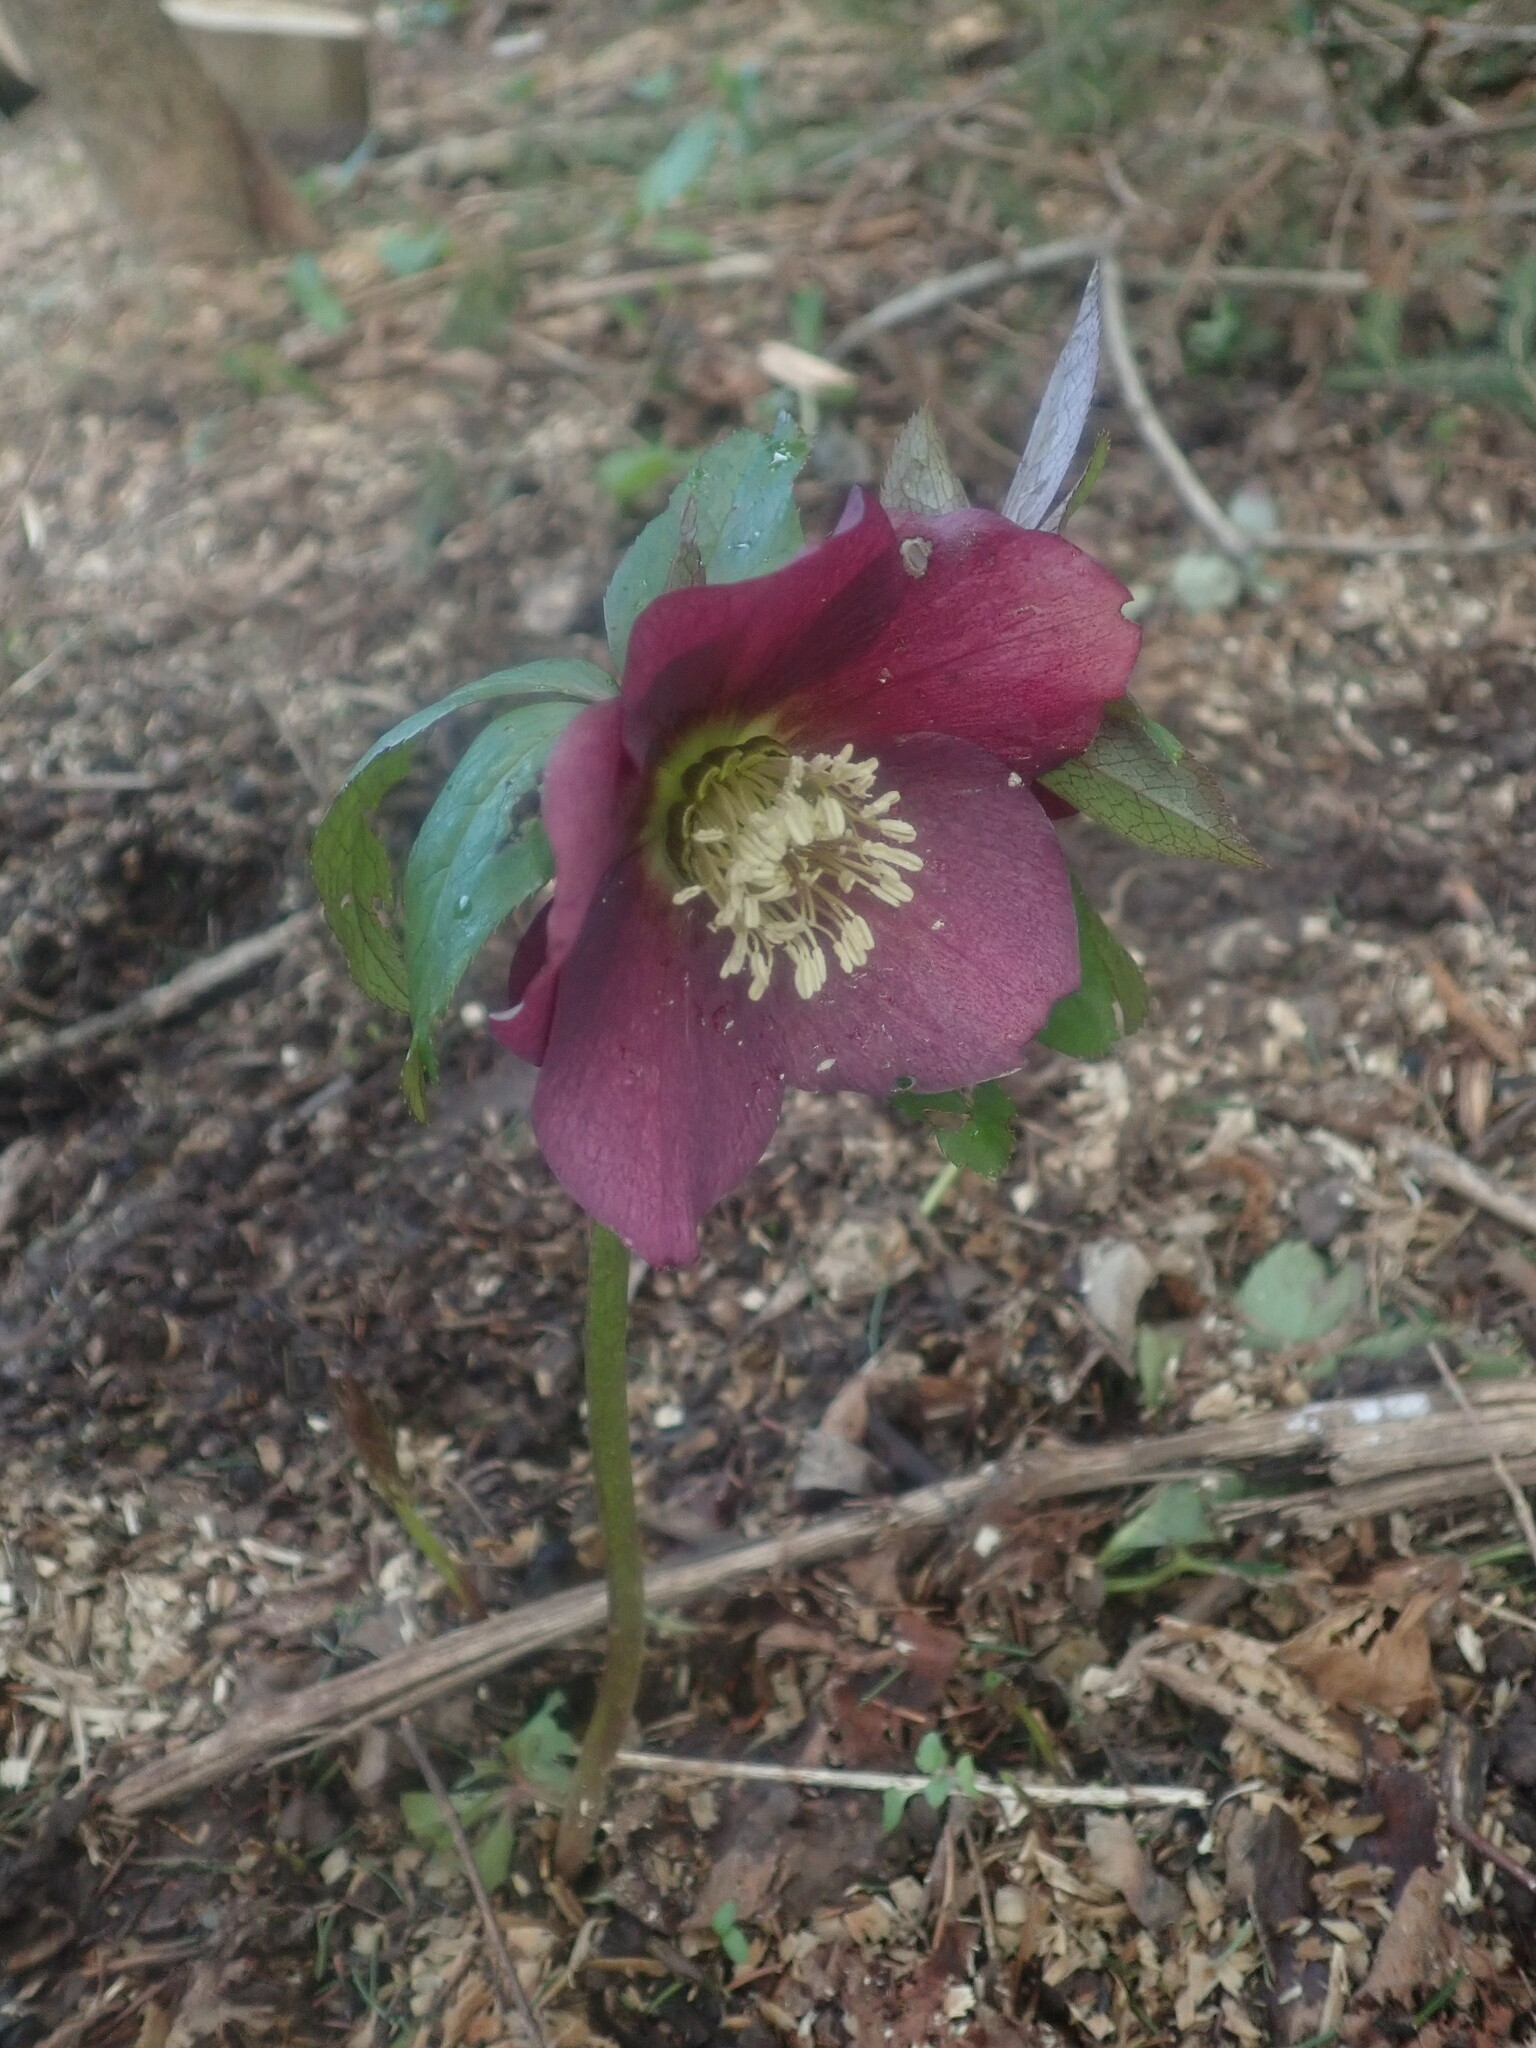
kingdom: Plantae
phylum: Tracheophyta
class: Magnoliopsida
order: Ranunculales
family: Ranunculaceae
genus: Helleborus
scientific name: Helleborus orientalis
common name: Lenten-rose
